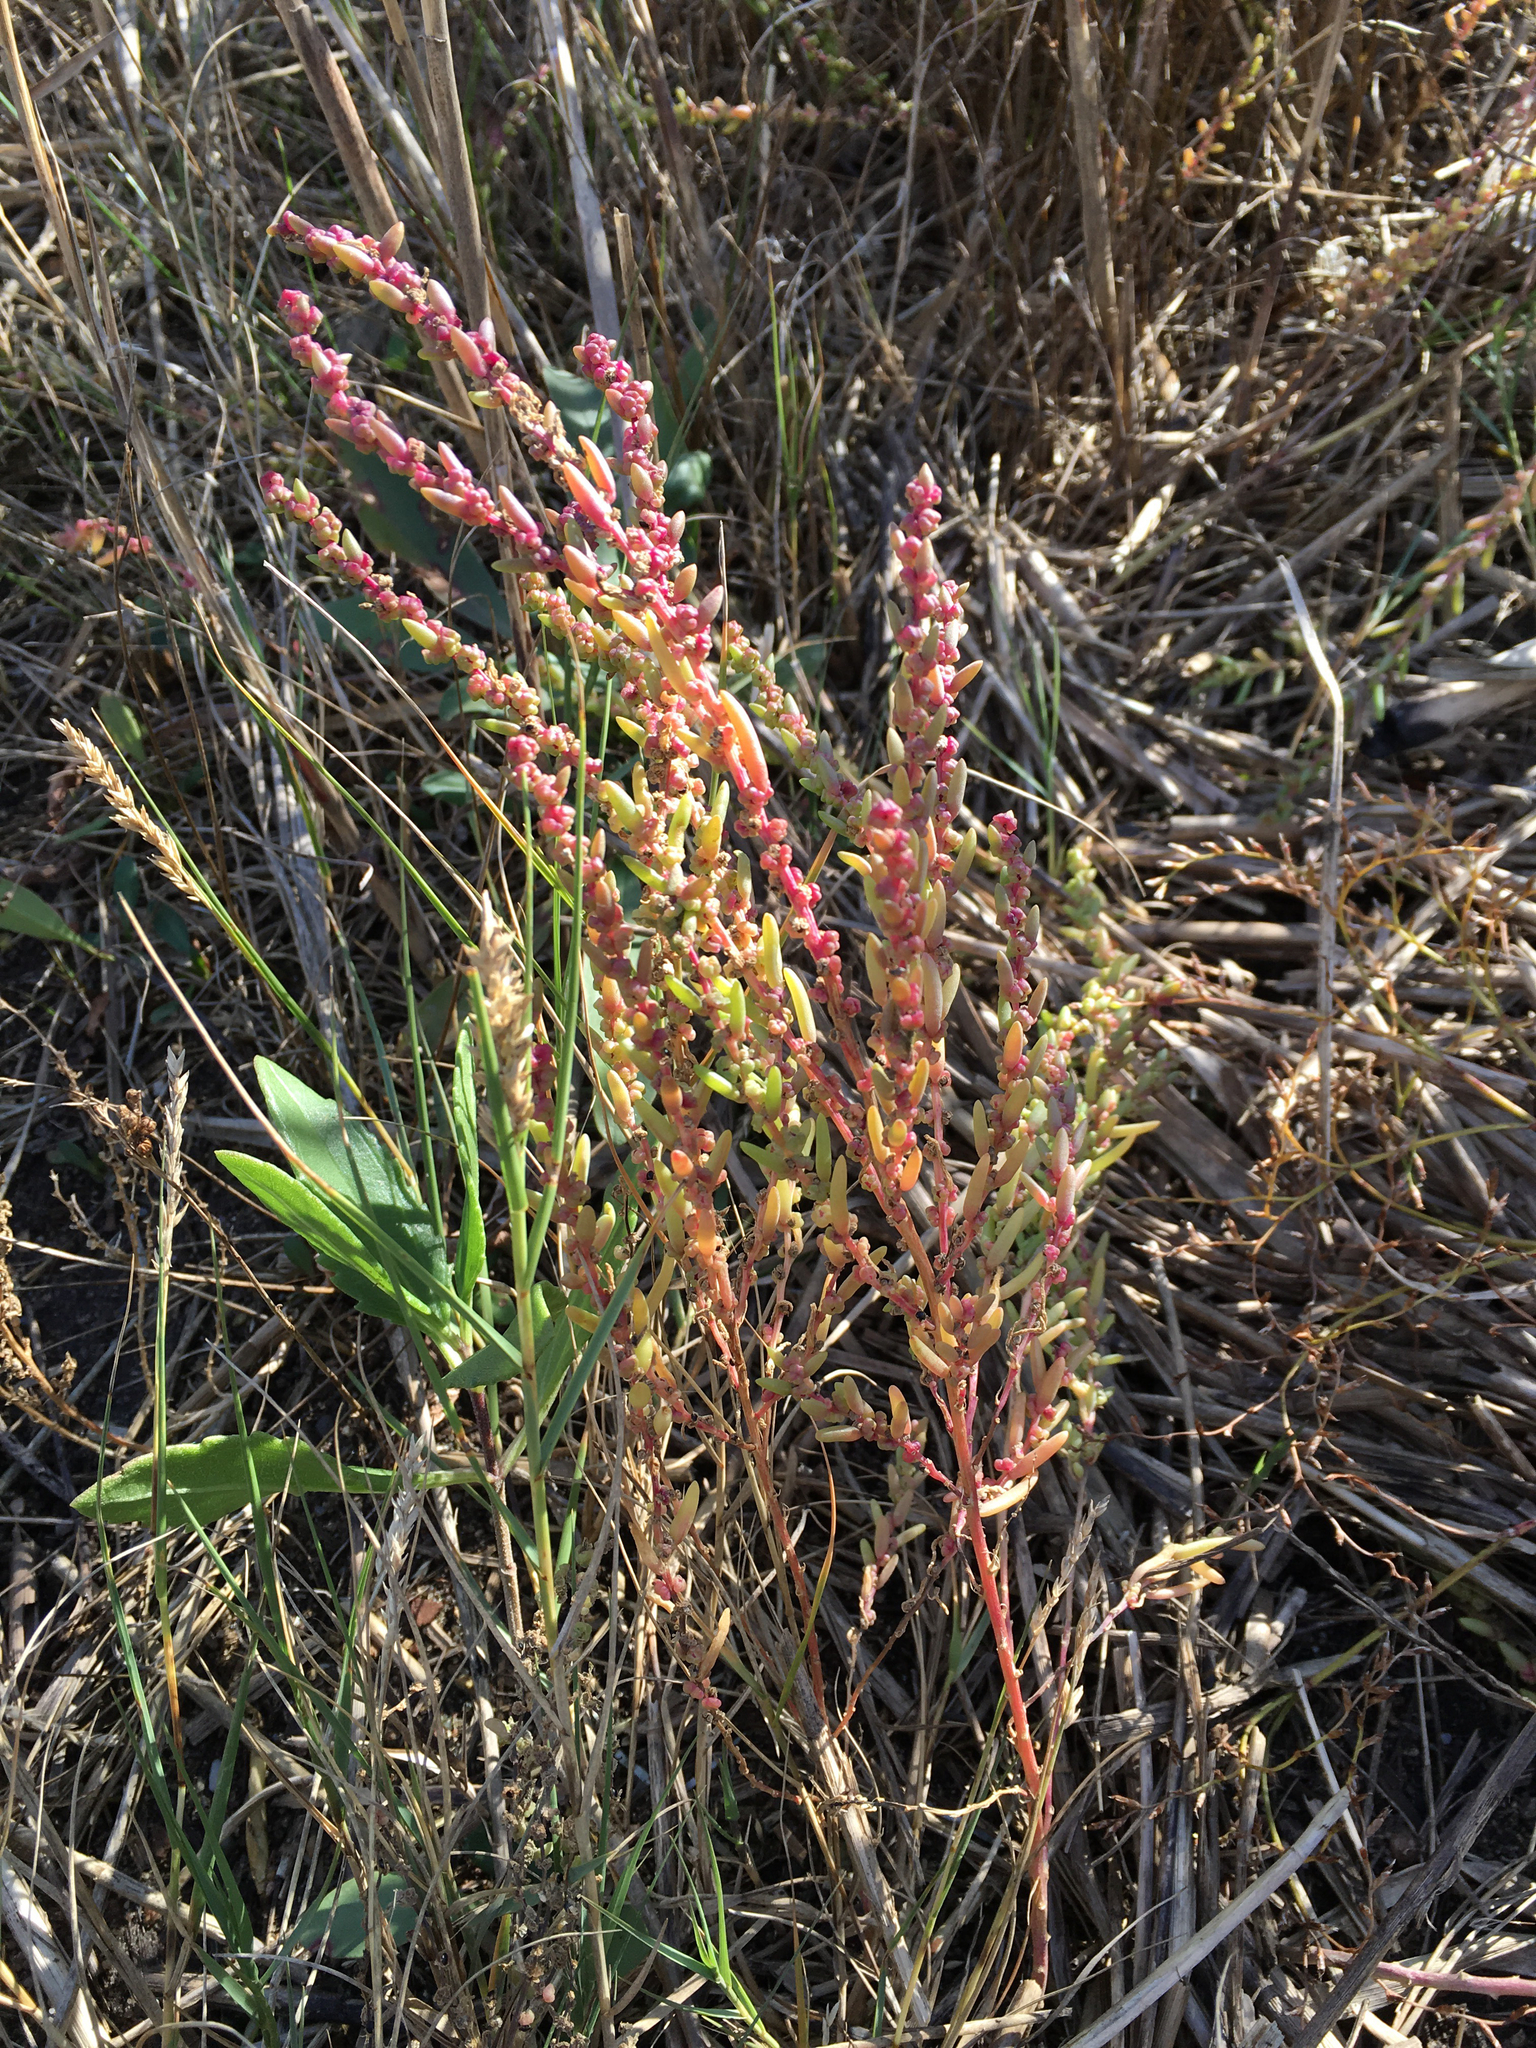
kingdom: Plantae
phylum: Tracheophyta
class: Magnoliopsida
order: Caryophyllales
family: Amaranthaceae
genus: Suaeda
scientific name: Suaeda maritima
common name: Annual sea-blite
